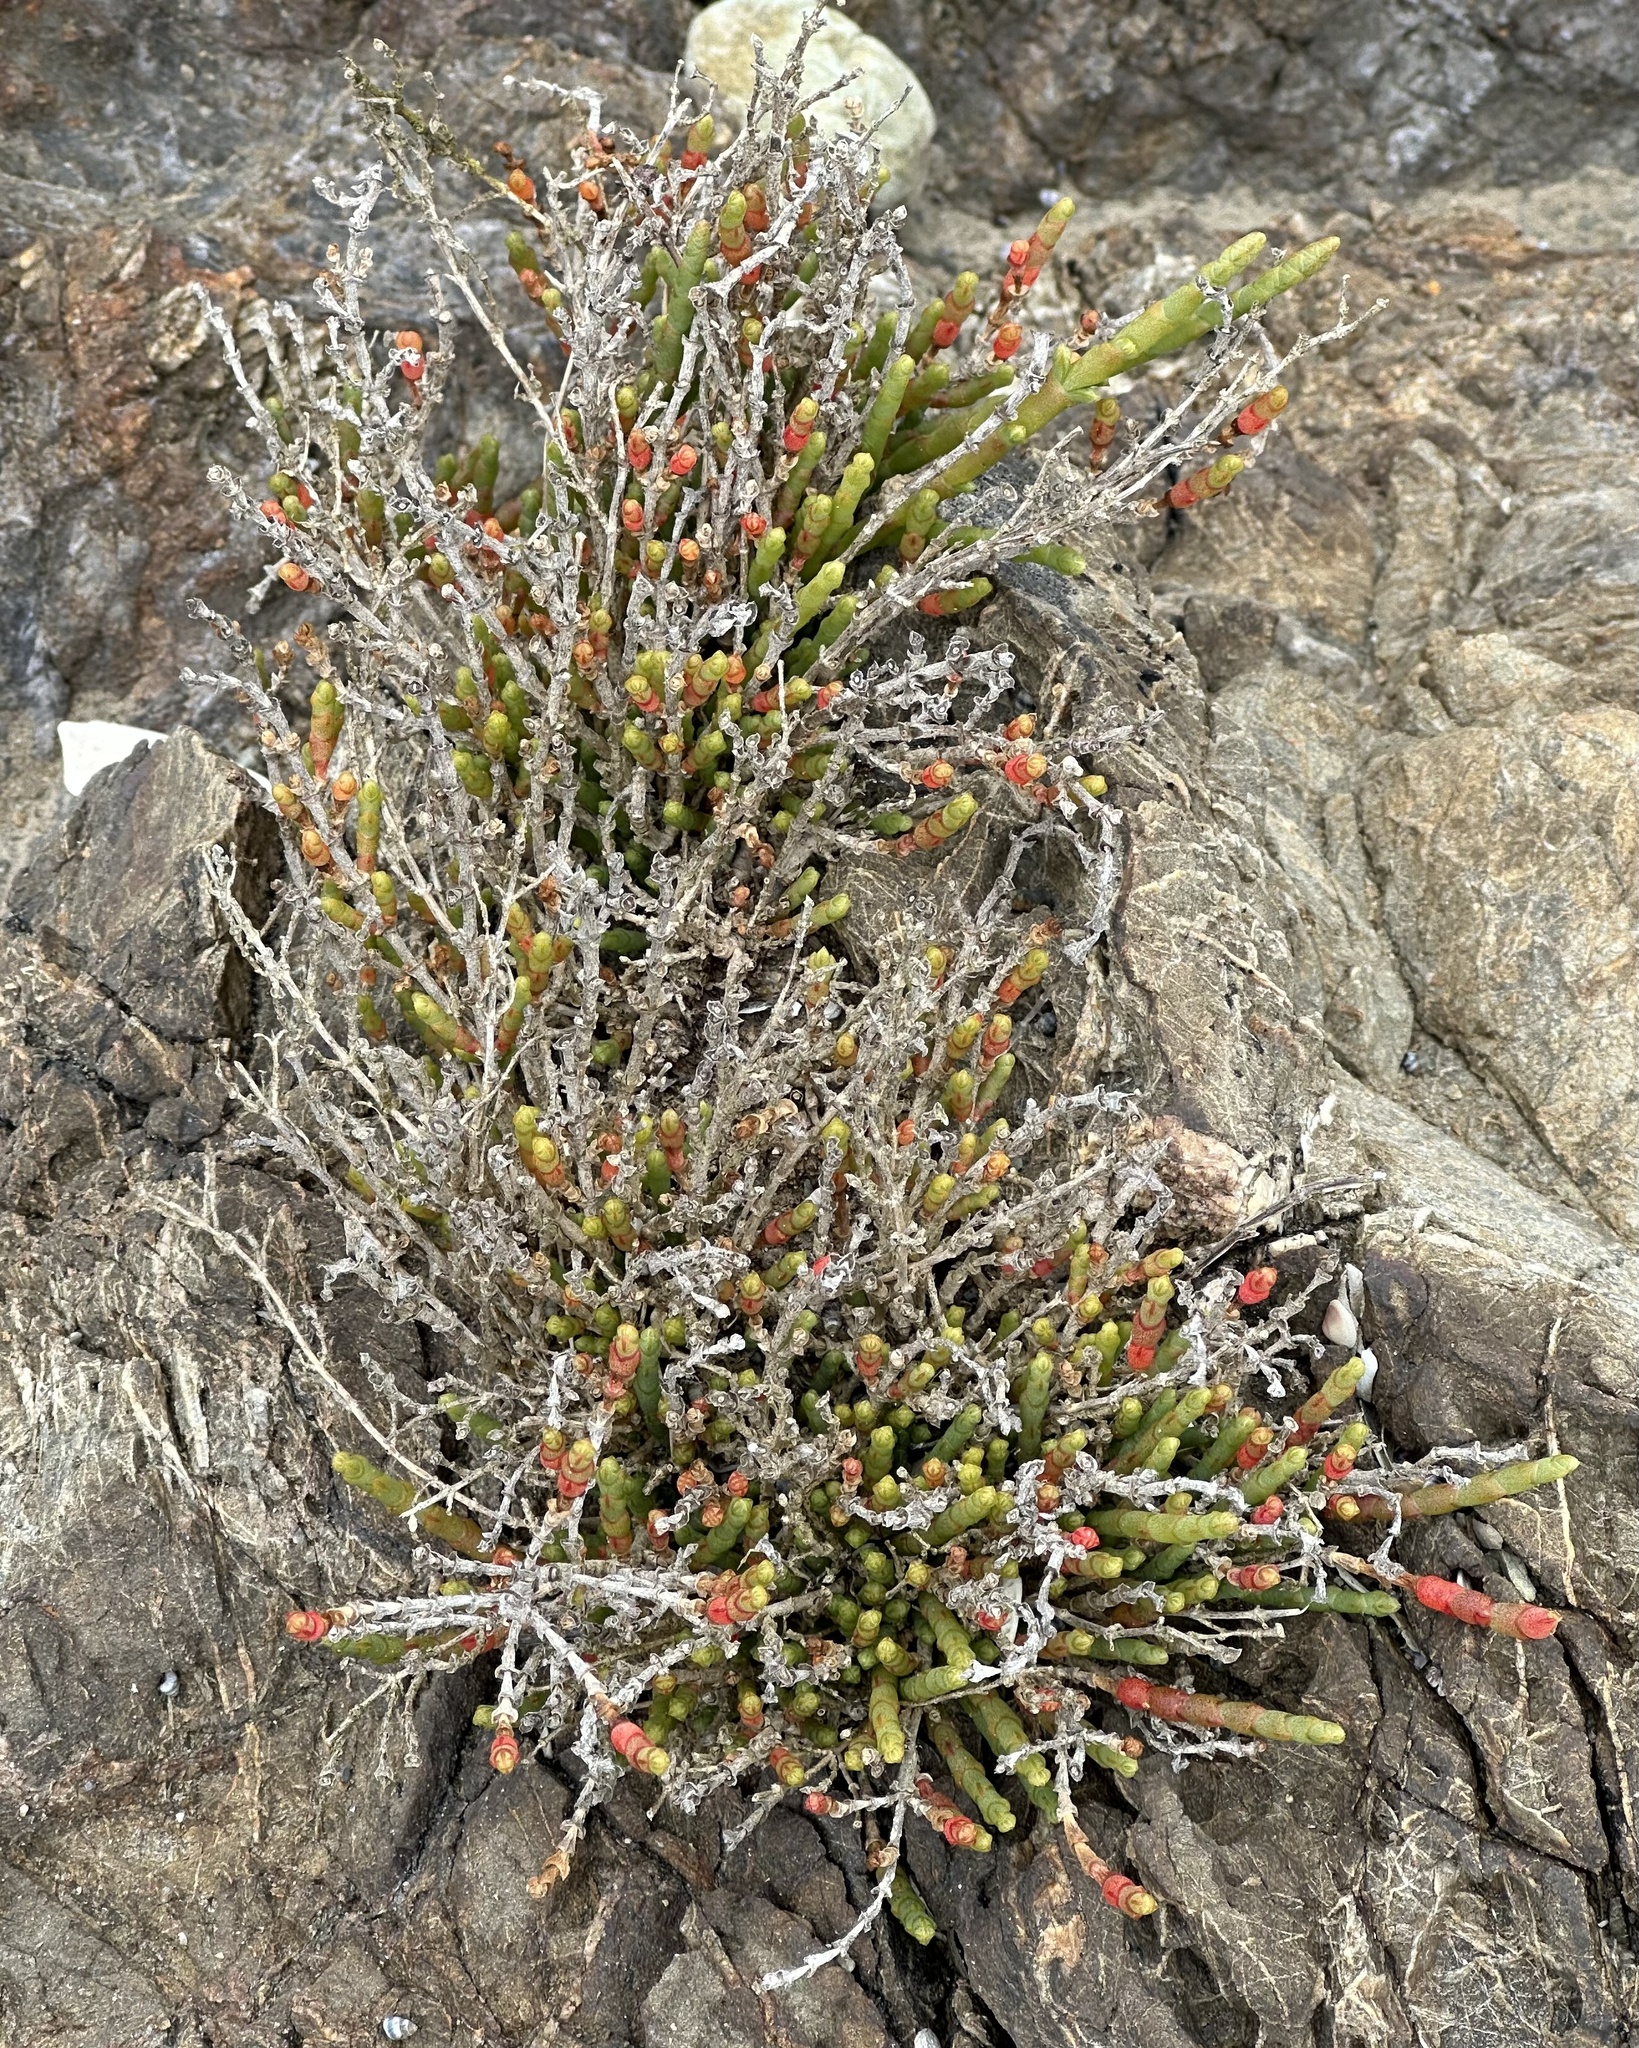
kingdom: Plantae
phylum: Tracheophyta
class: Magnoliopsida
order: Caryophyllales
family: Amaranthaceae
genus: Salicornia
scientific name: Salicornia quinqueflora
